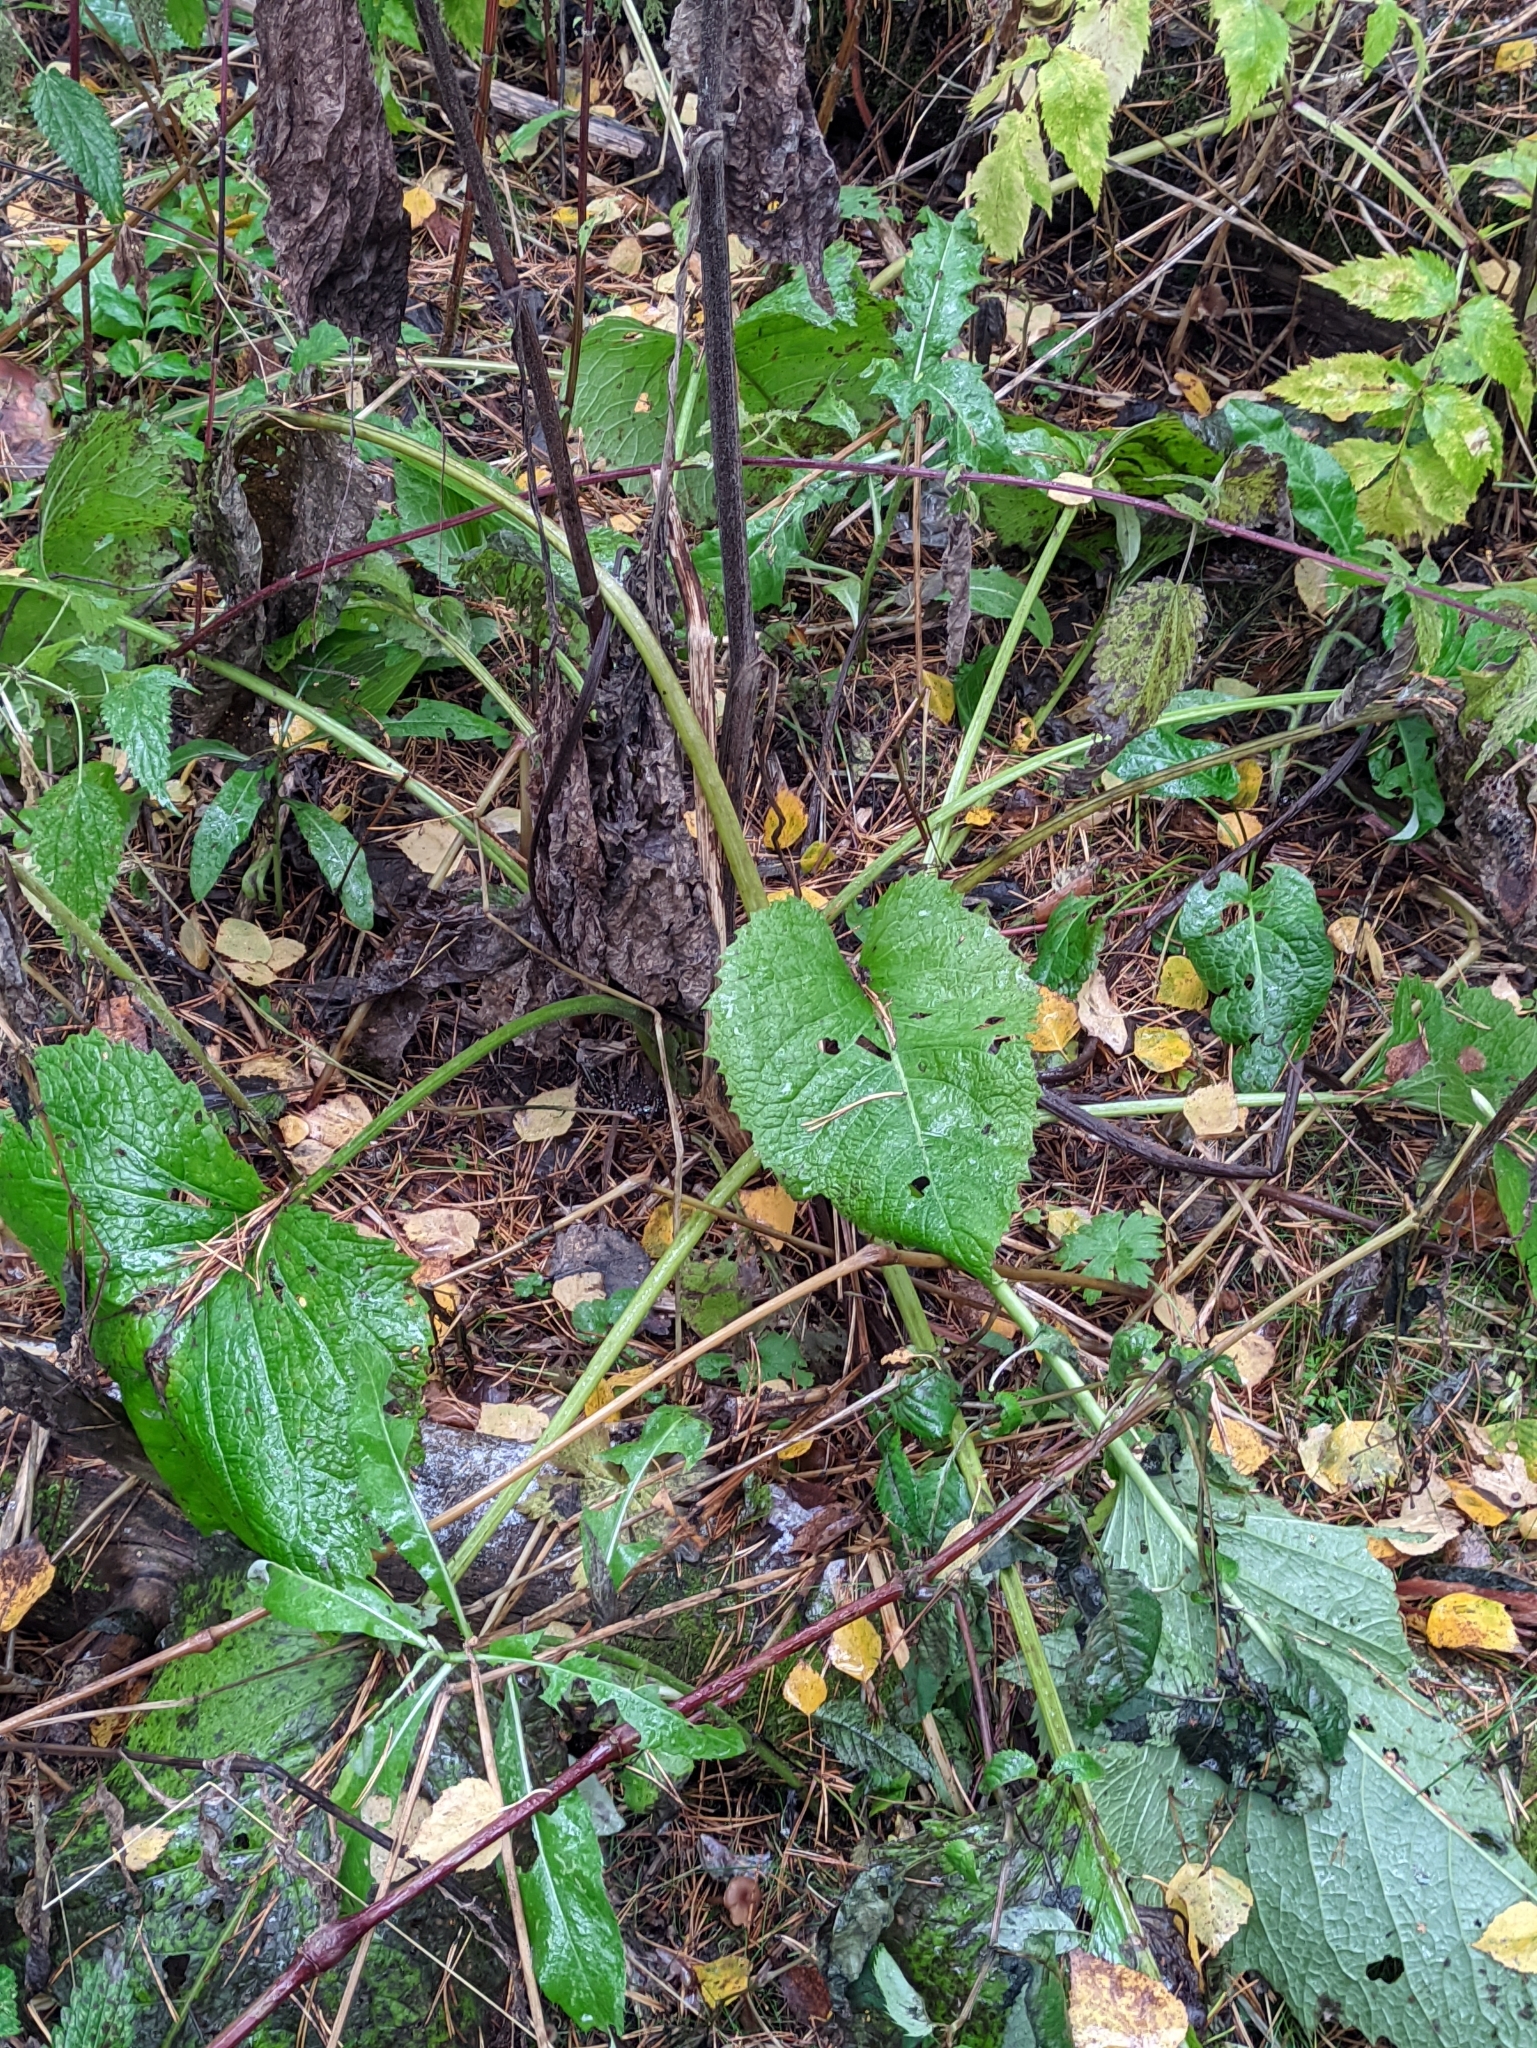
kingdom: Plantae
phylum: Tracheophyta
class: Magnoliopsida
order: Asterales
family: Asteraceae
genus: Telekia
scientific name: Telekia speciosa
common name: Yellow oxeye
